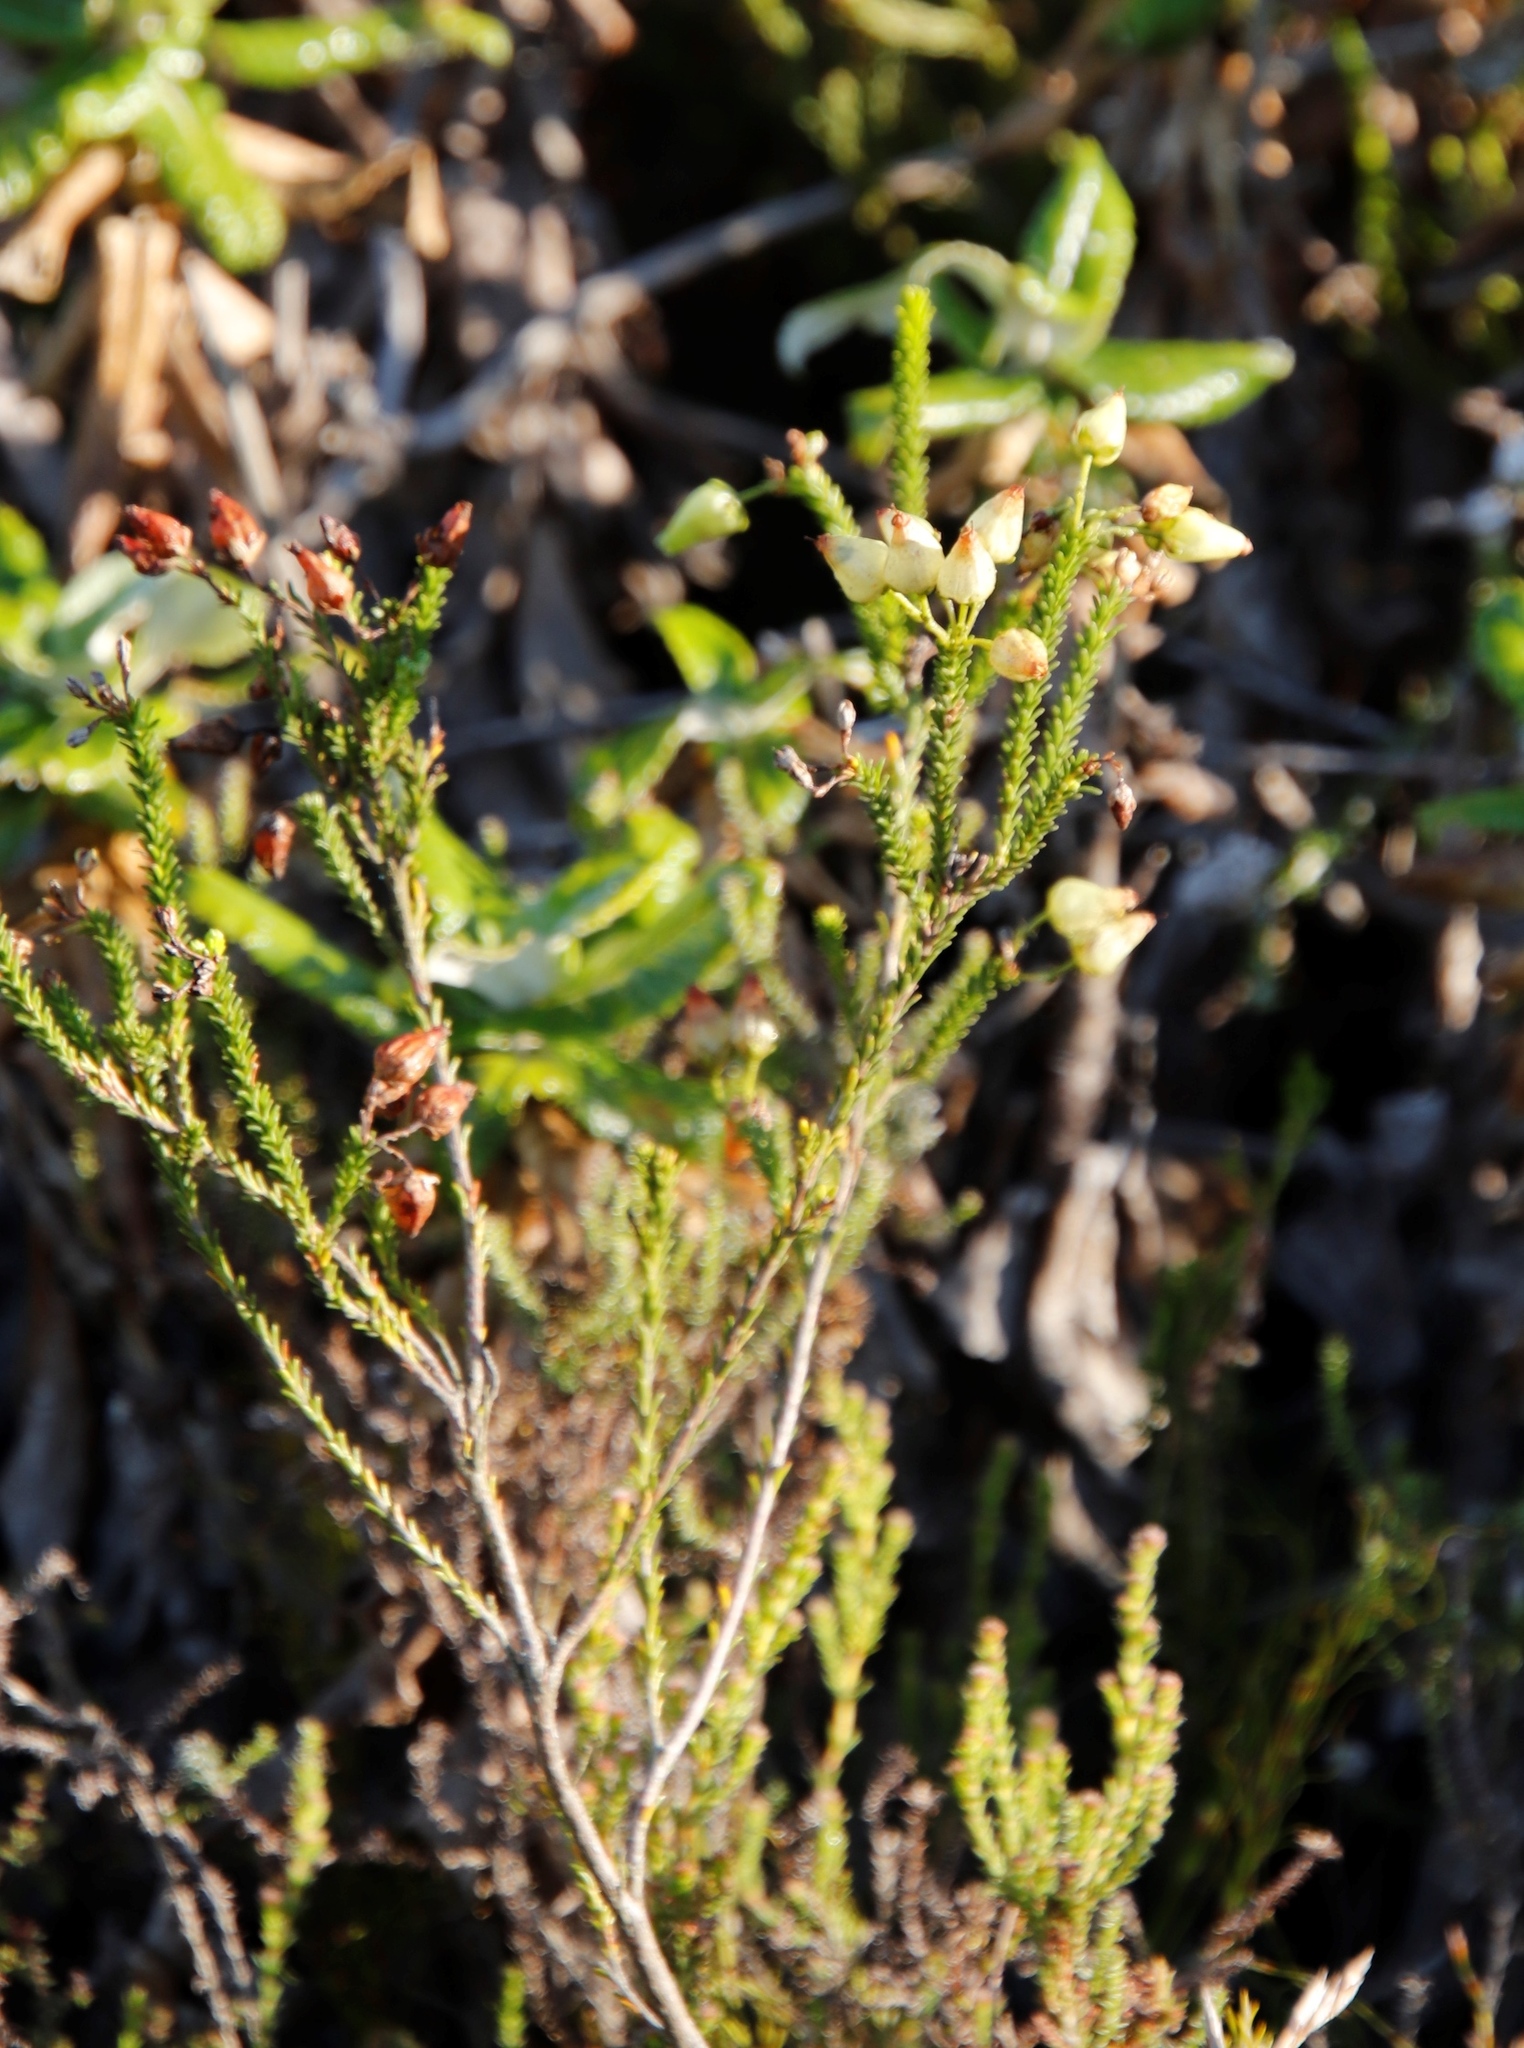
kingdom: Plantae
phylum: Tracheophyta
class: Magnoliopsida
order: Ericales
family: Ericaceae
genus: Erica
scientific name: Erica urna-viridis
